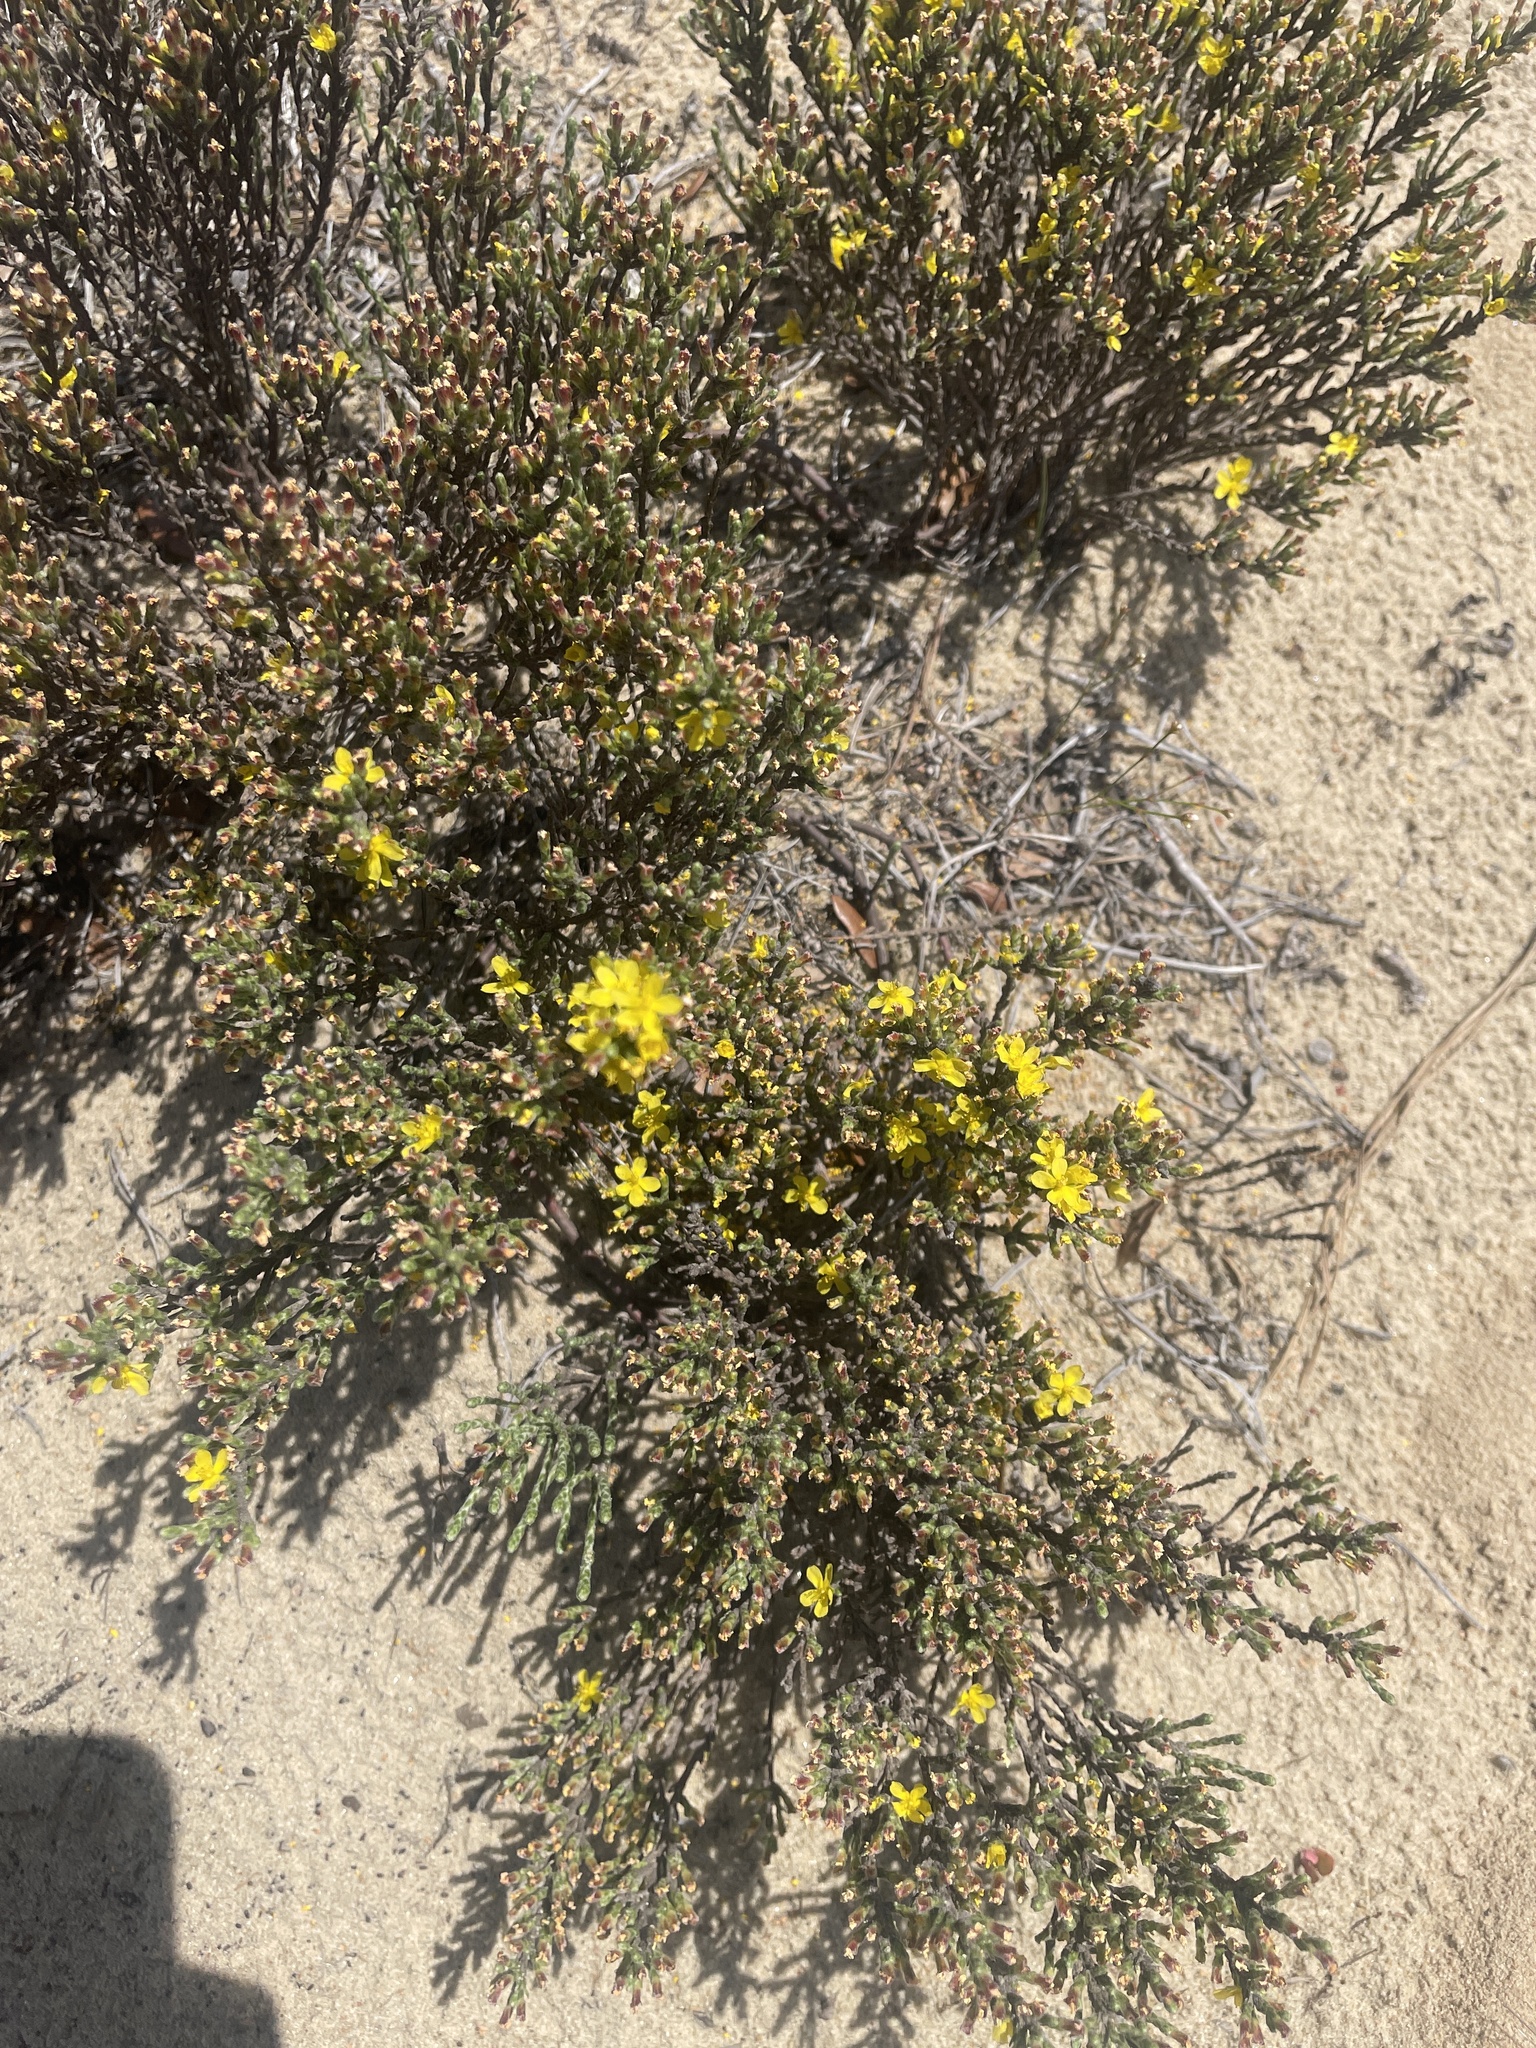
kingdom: Plantae
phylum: Tracheophyta
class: Magnoliopsida
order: Malvales
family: Cistaceae
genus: Hudsonia
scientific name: Hudsonia tomentosa
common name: Beach-heath
